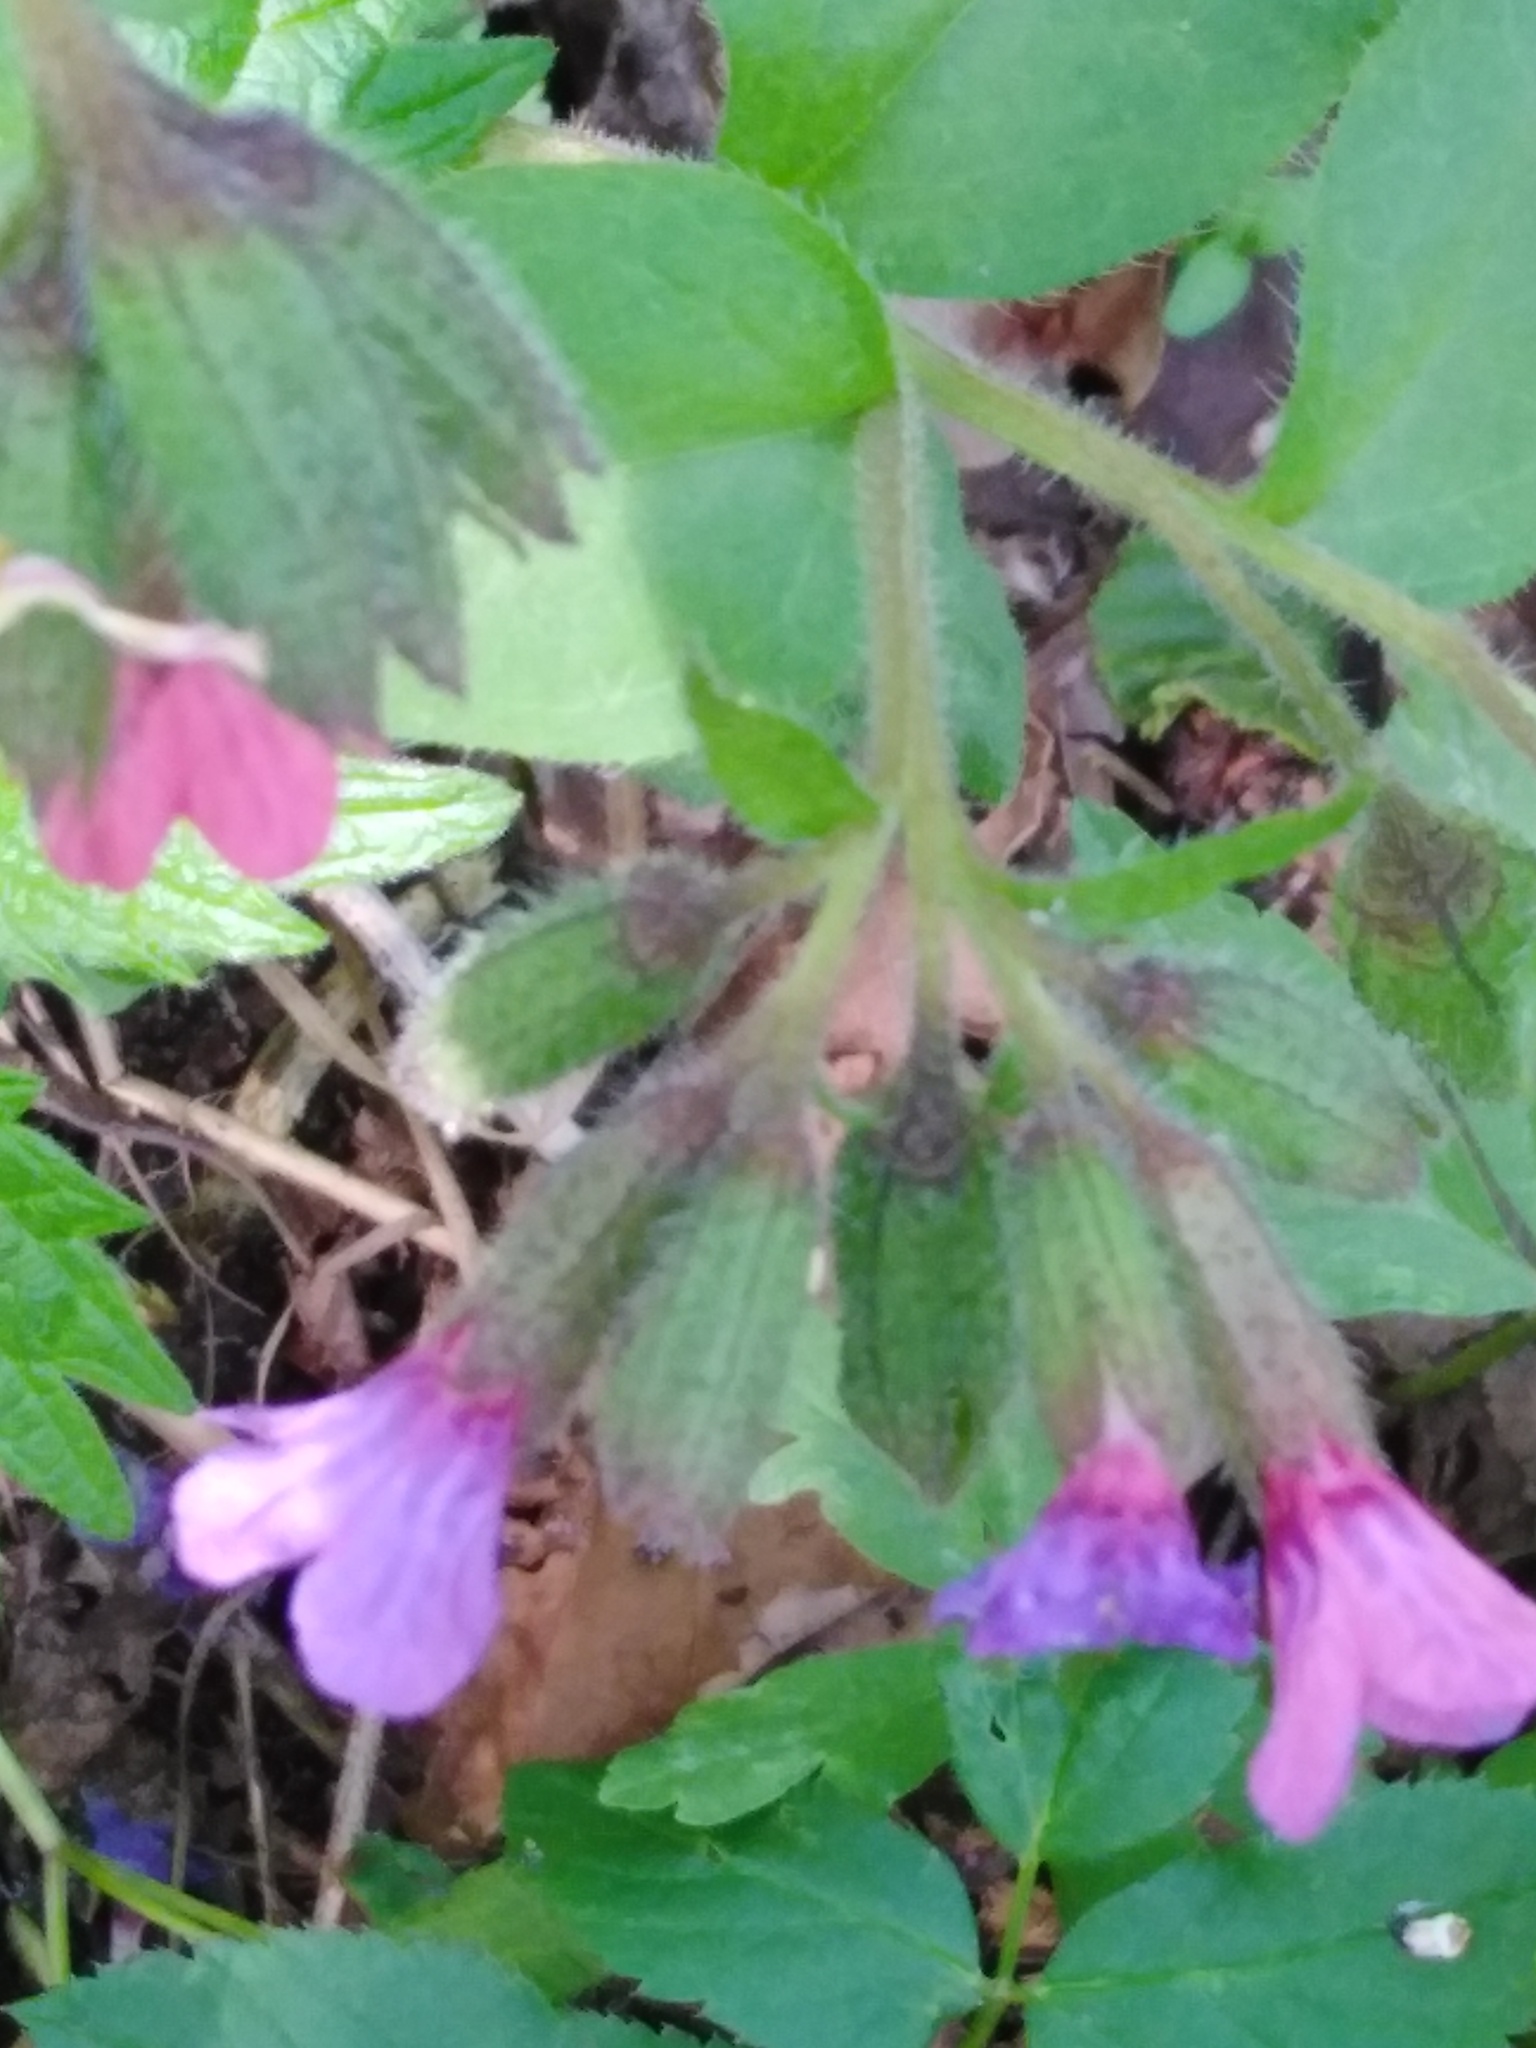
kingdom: Plantae
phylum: Tracheophyta
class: Magnoliopsida
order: Boraginales
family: Boraginaceae
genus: Pulmonaria
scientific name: Pulmonaria obscura
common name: Suffolk lungwort
